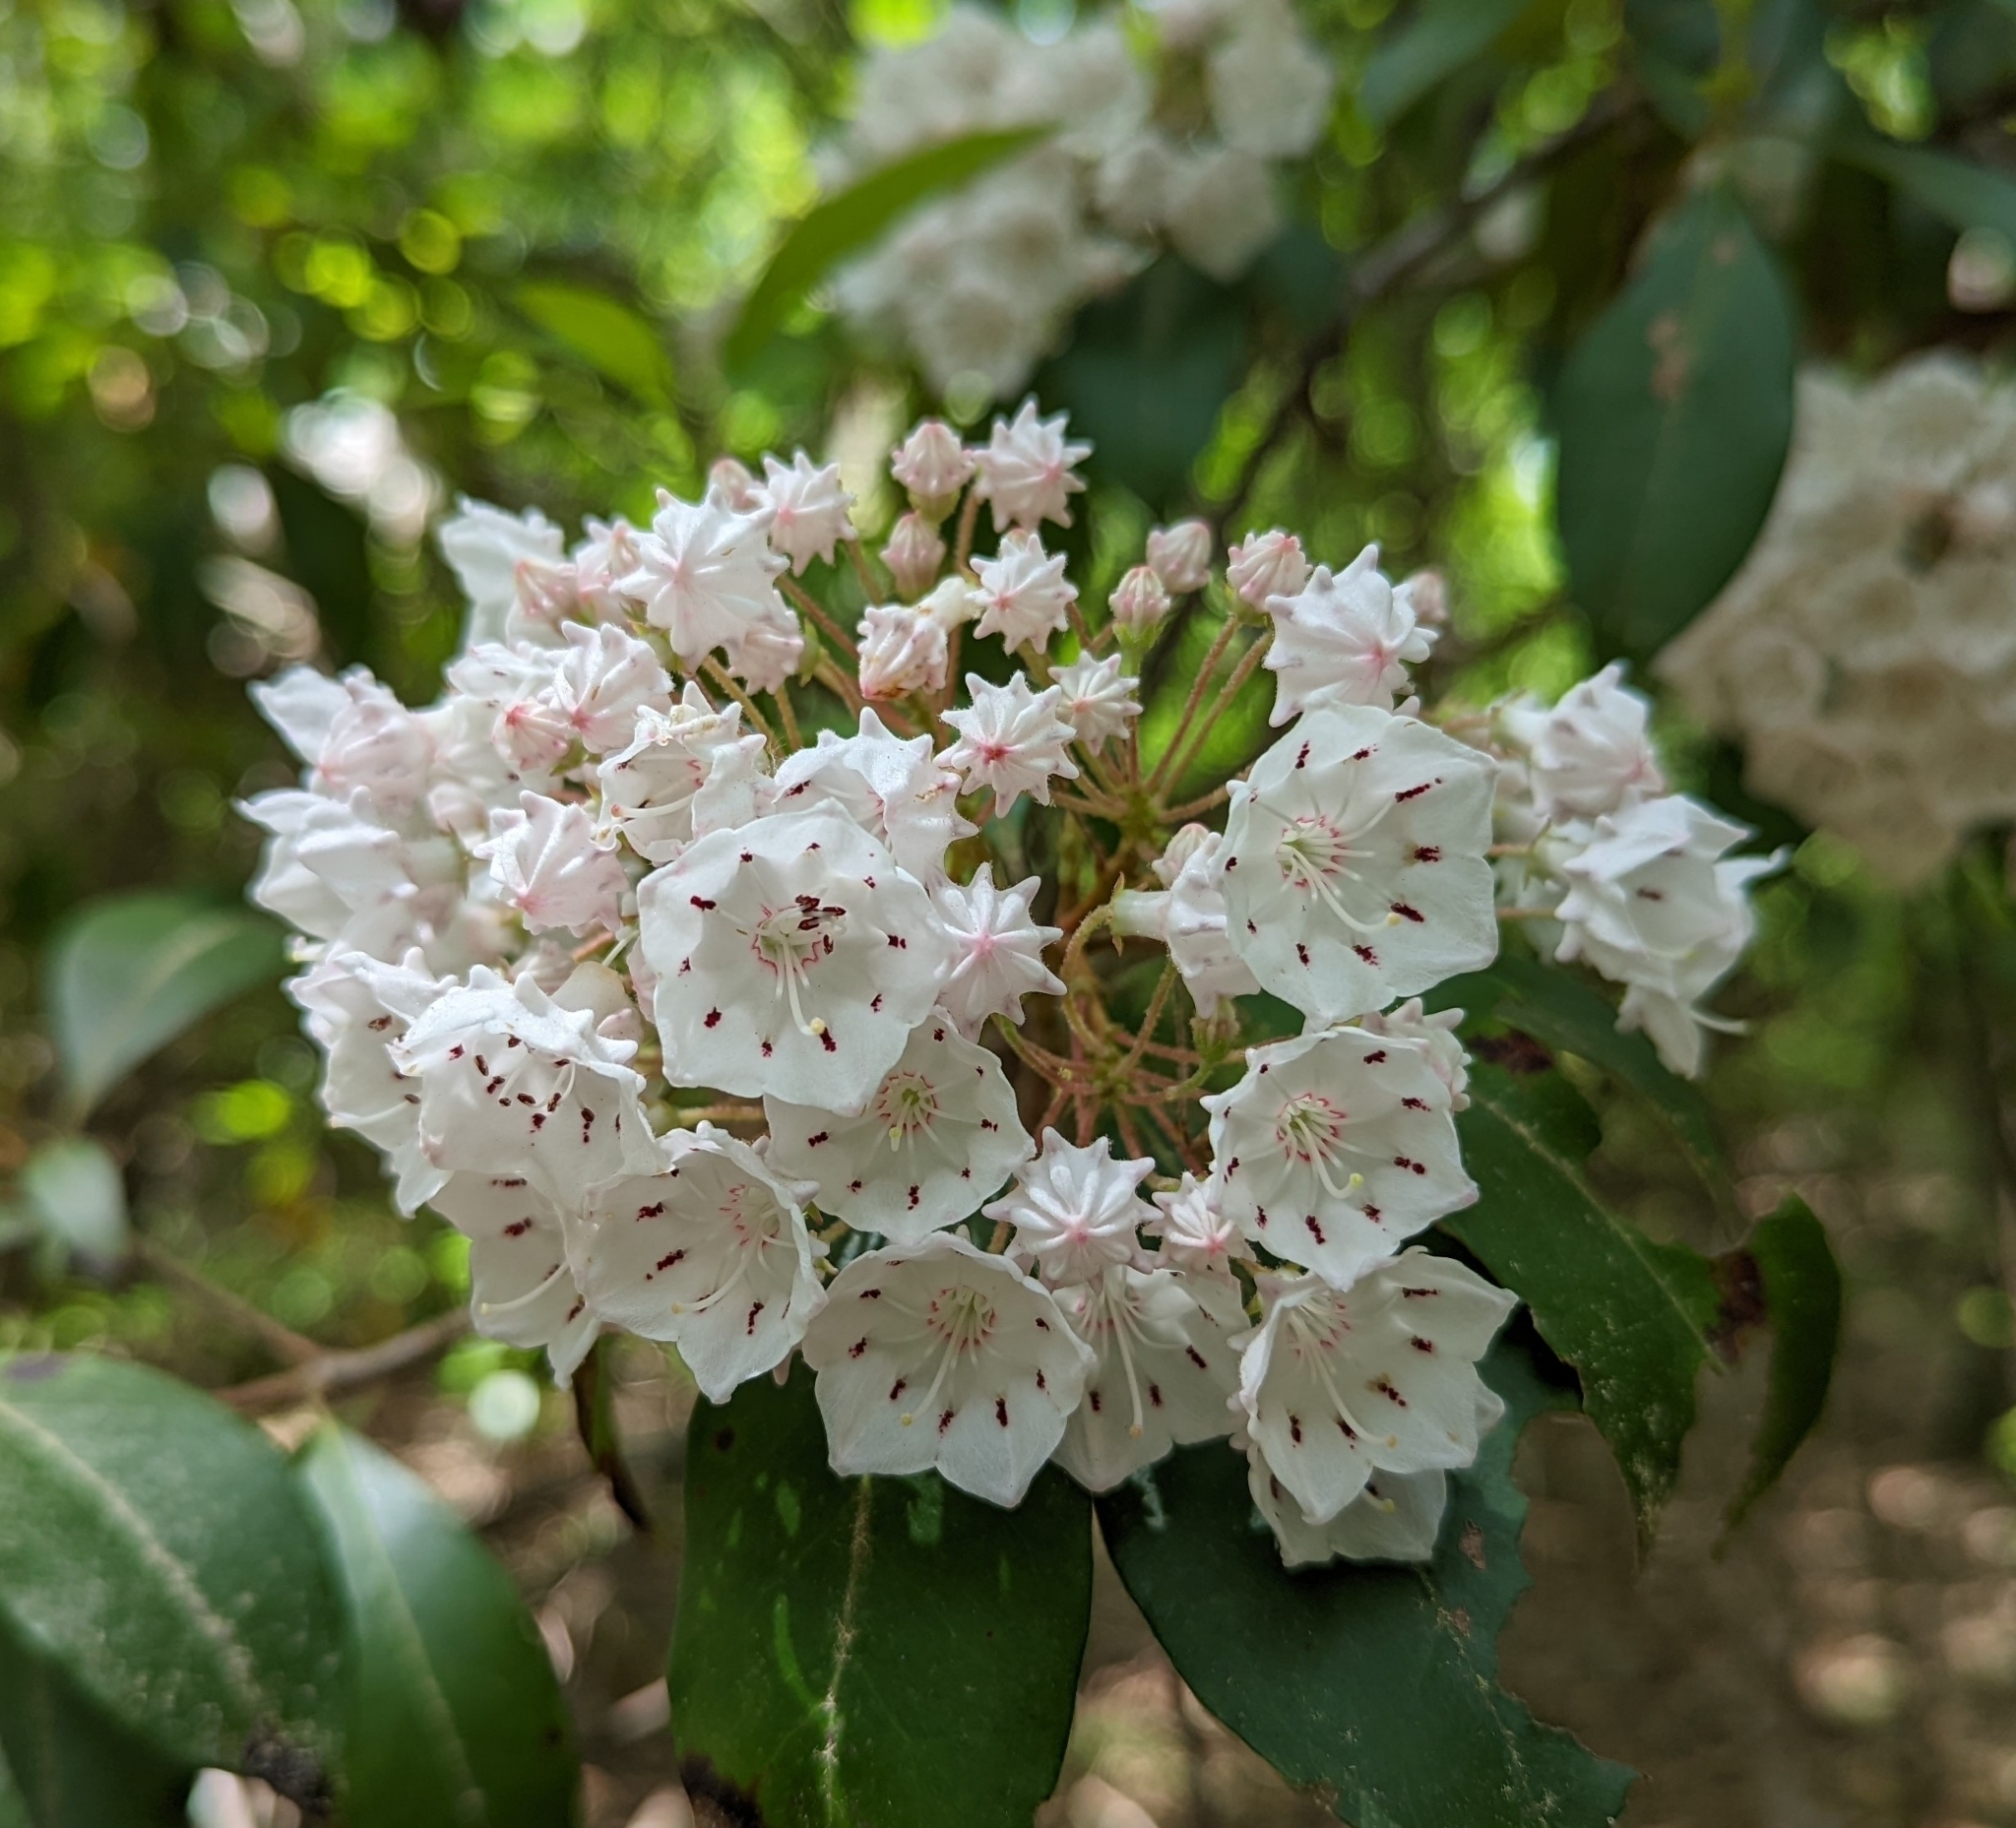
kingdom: Plantae
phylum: Tracheophyta
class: Magnoliopsida
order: Ericales
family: Ericaceae
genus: Kalmia
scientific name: Kalmia latifolia
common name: Mountain-laurel
